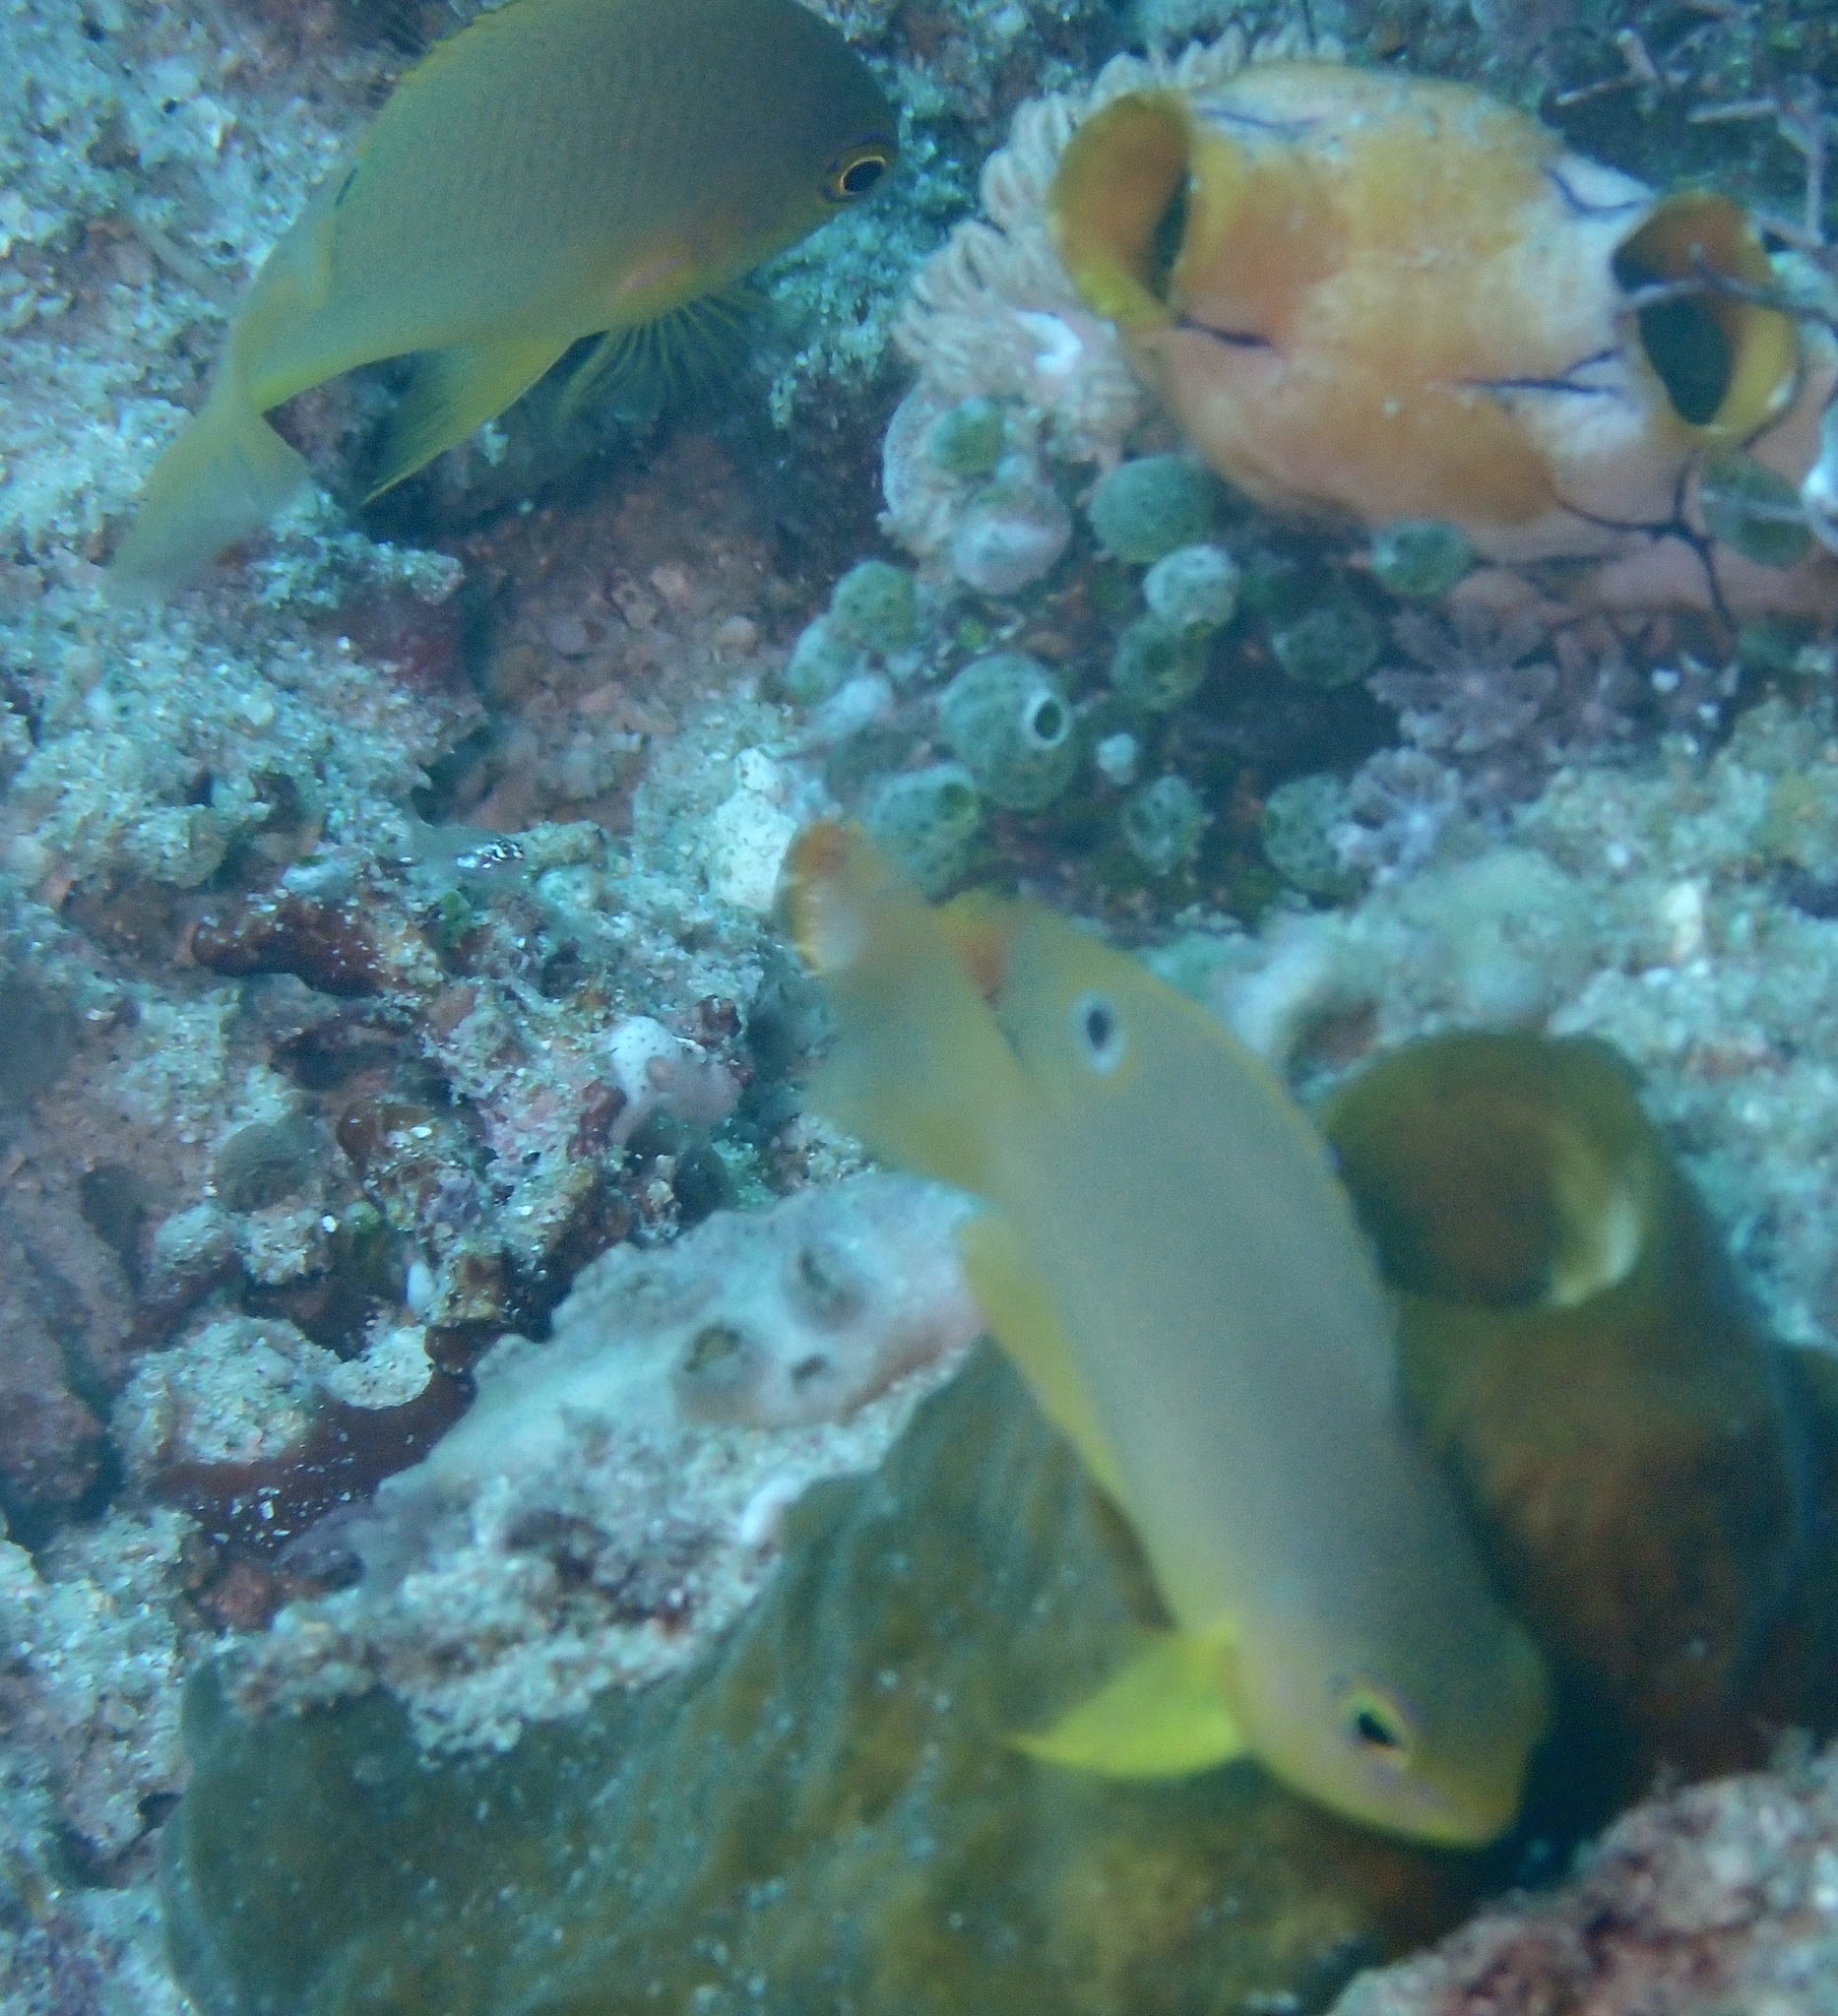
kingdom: Animalia
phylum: Chordata
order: Perciformes
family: Pomacentridae
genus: Pomacentrus
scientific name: Pomacentrus amboinensis
